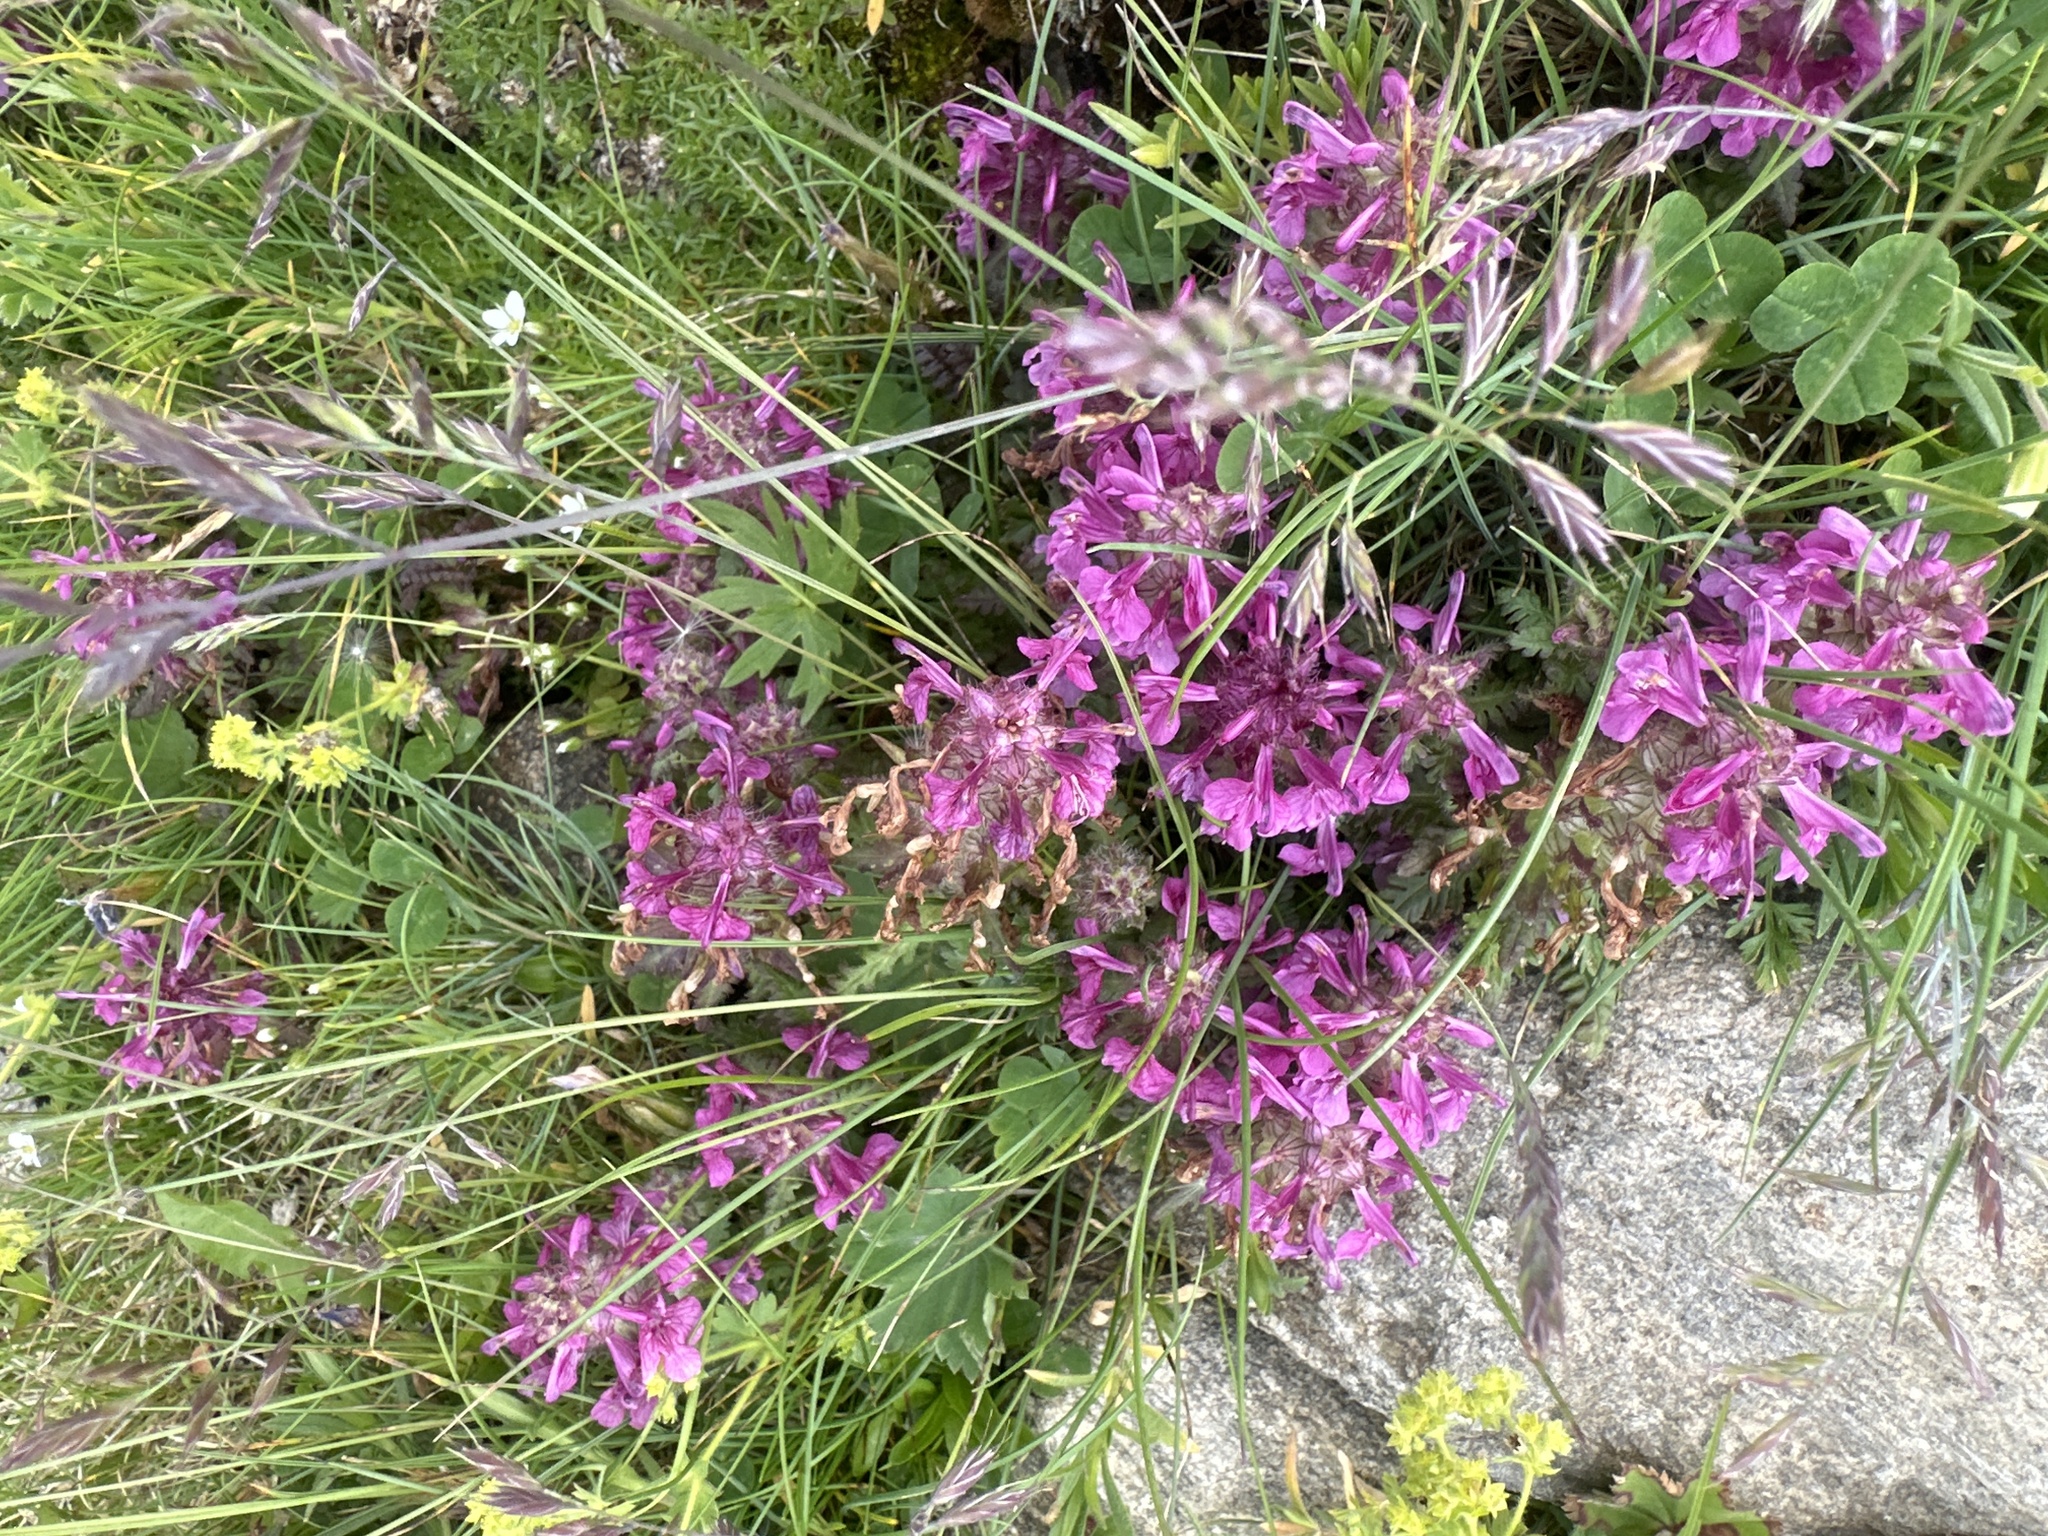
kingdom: Plantae
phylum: Tracheophyta
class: Magnoliopsida
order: Lamiales
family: Orobanchaceae
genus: Pedicularis
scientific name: Pedicularis verticillata
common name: Whorled lousewort
